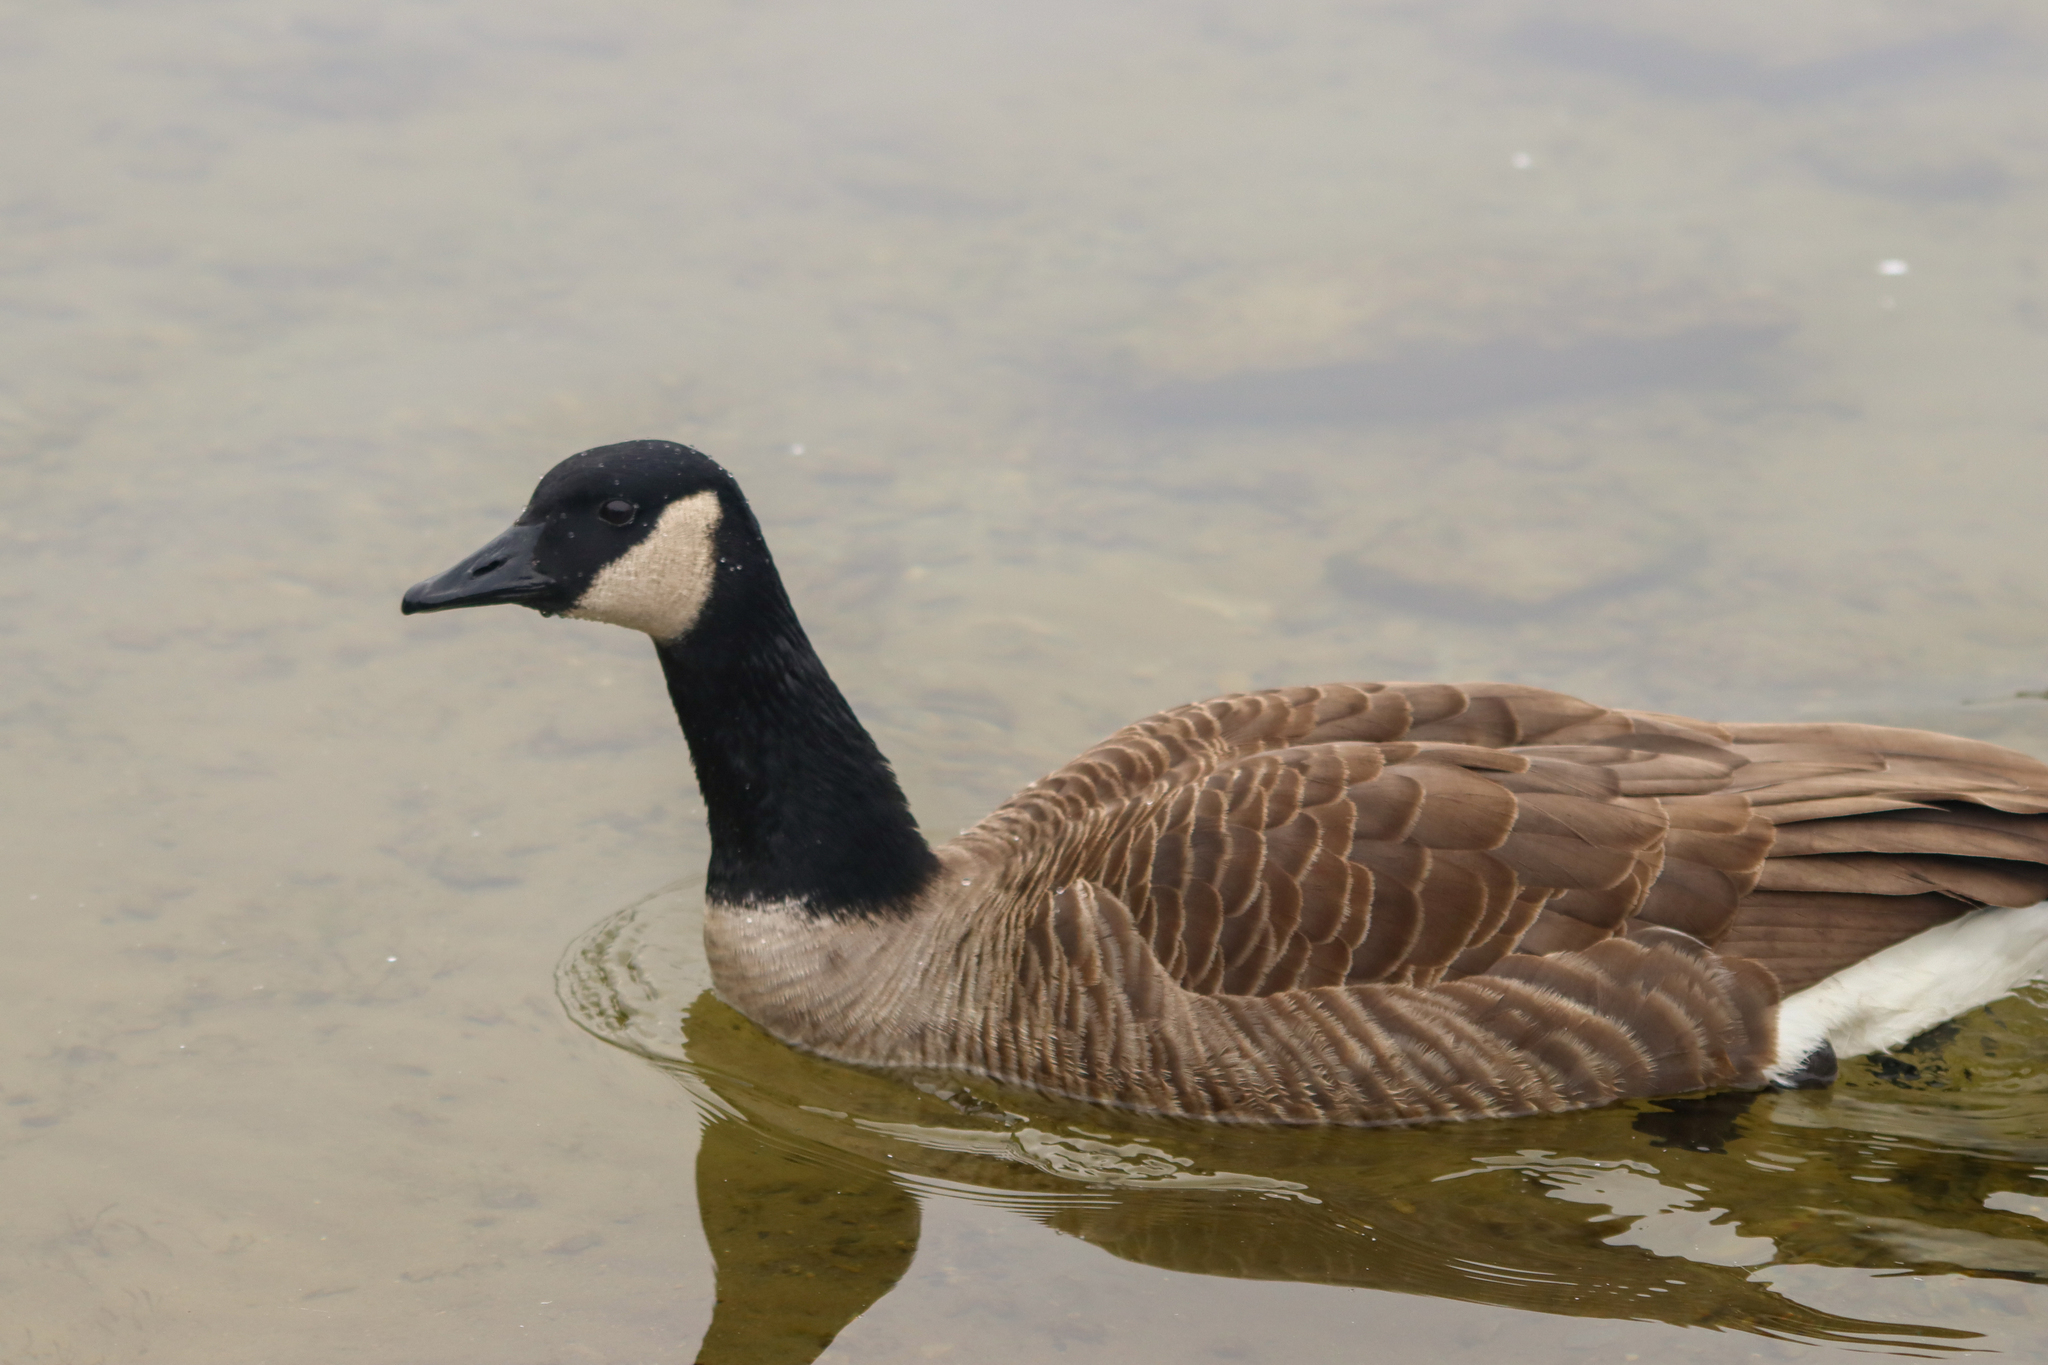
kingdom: Animalia
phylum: Chordata
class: Aves
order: Anseriformes
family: Anatidae
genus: Branta
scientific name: Branta canadensis
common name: Canada goose
